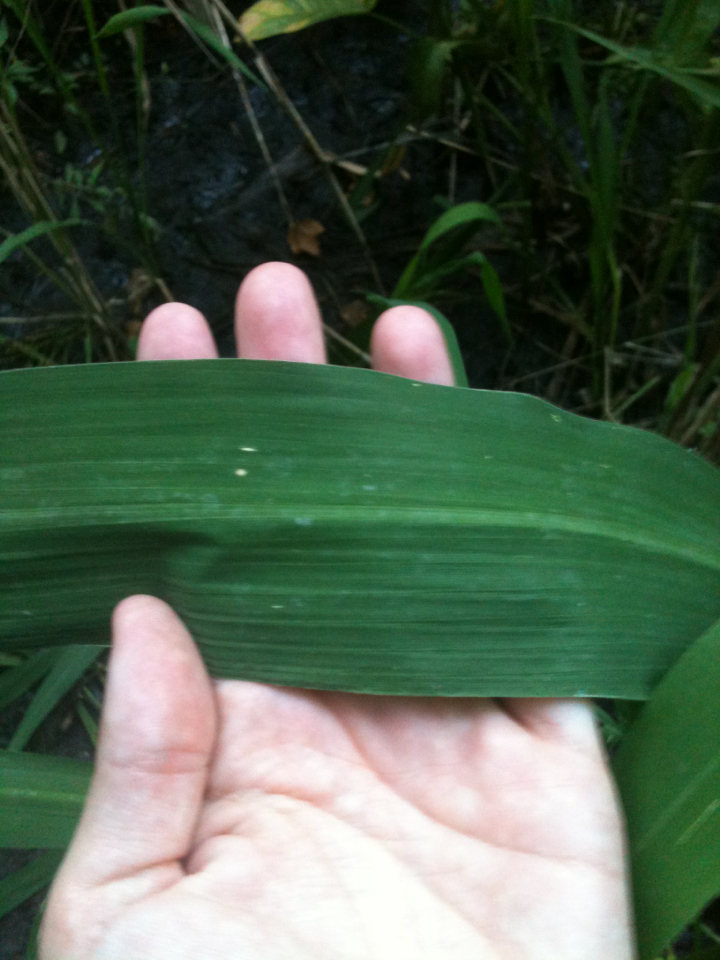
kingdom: Plantae
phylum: Tracheophyta
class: Liliopsida
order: Poales
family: Poaceae
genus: Zizania
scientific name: Zizania aquatica
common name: Annual wildrice
